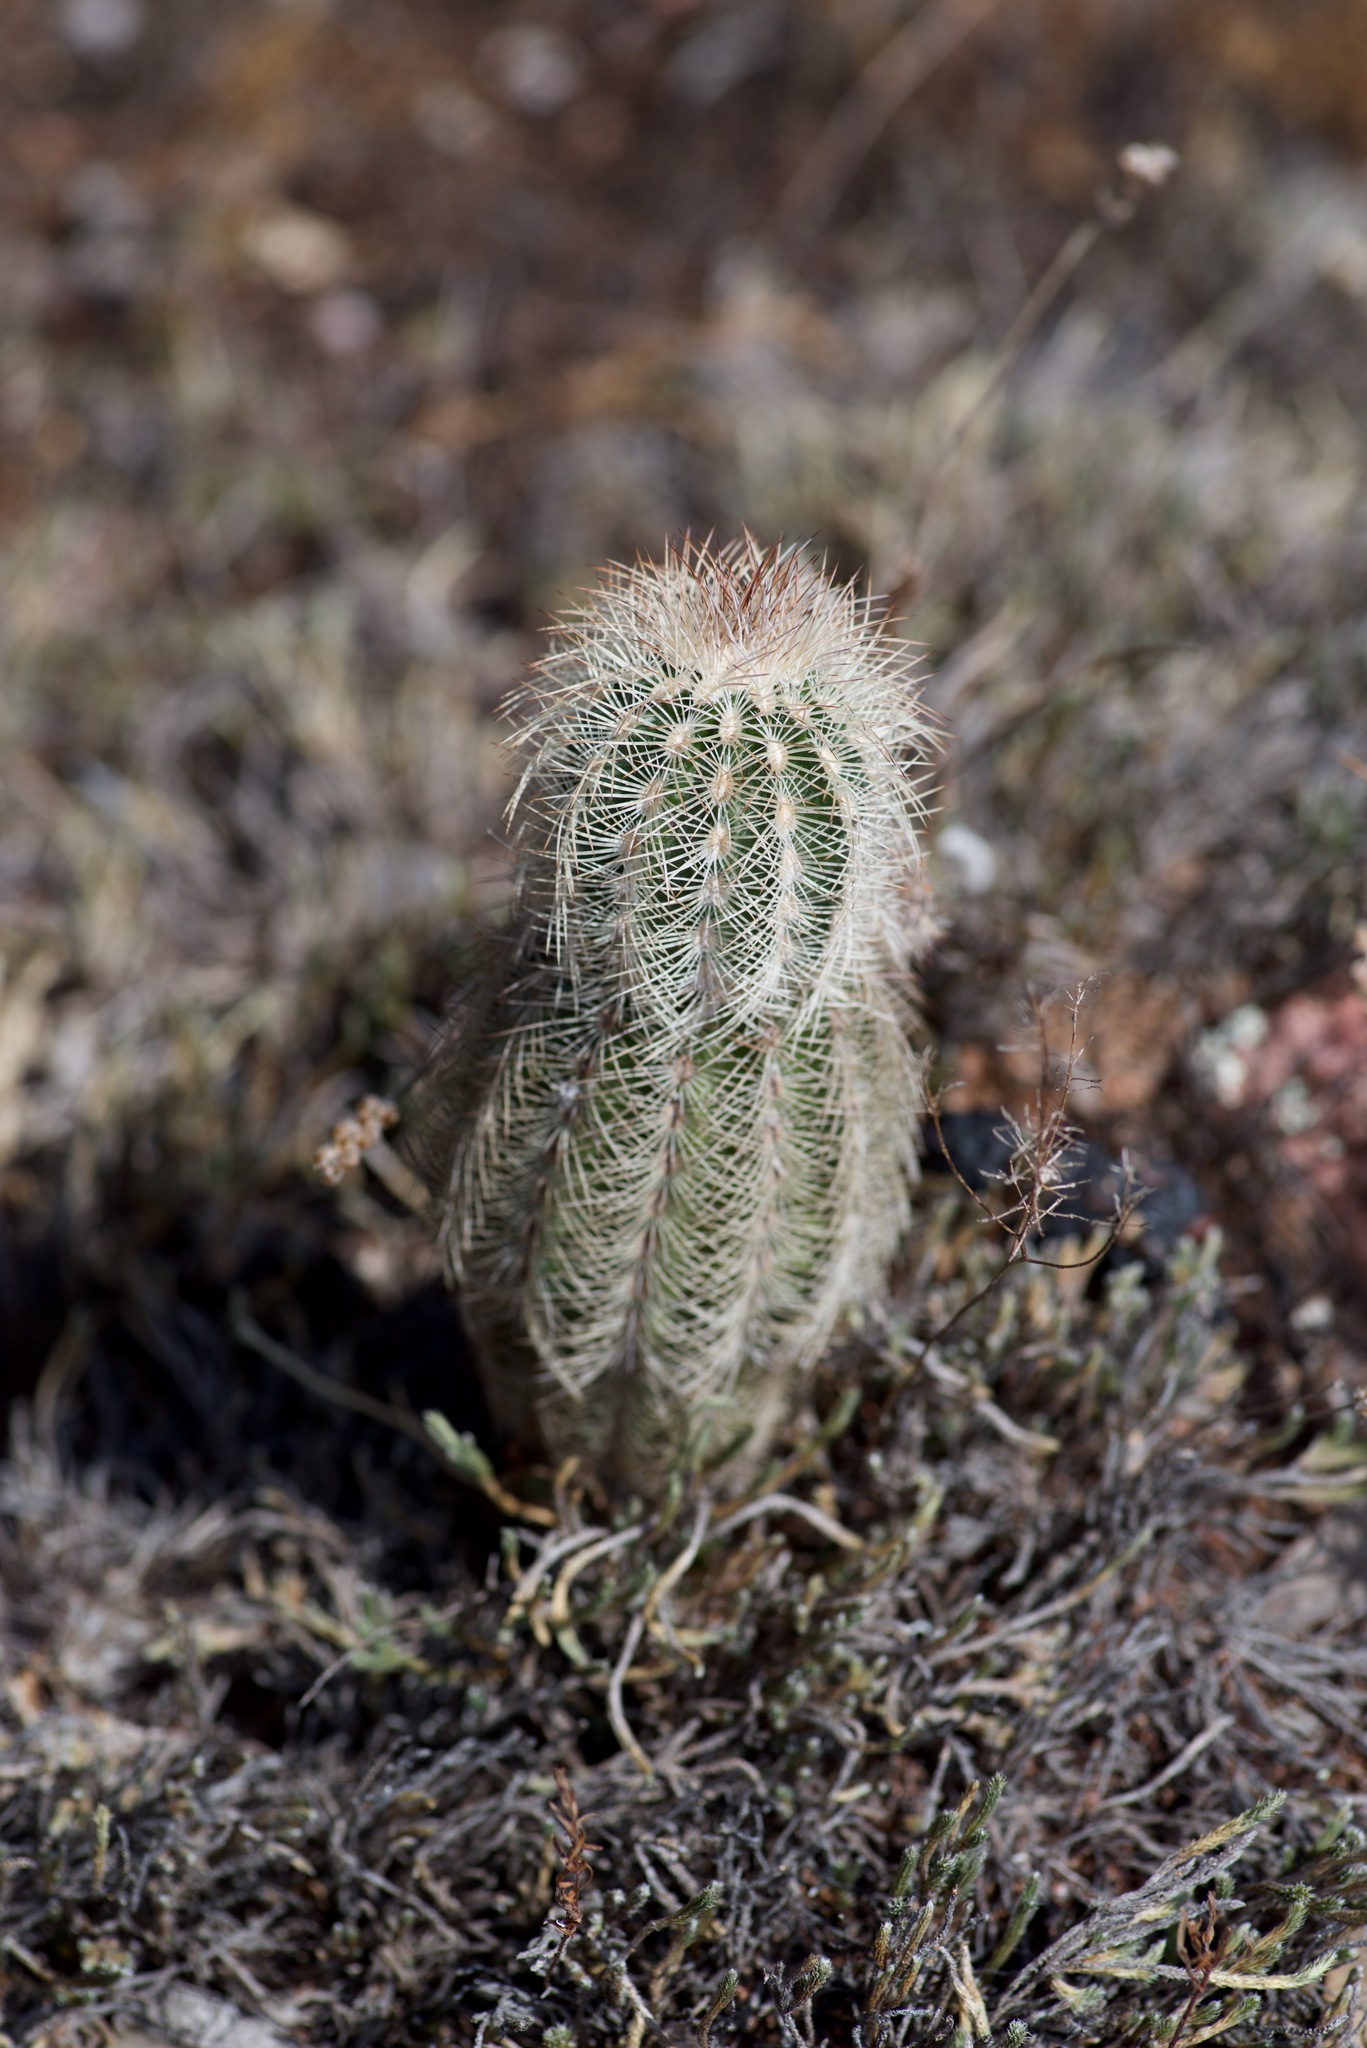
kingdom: Plantae
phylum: Tracheophyta
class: Magnoliopsida
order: Caryophyllales
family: Cactaceae
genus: Echinocereus
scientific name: Echinocereus reichenbachii
